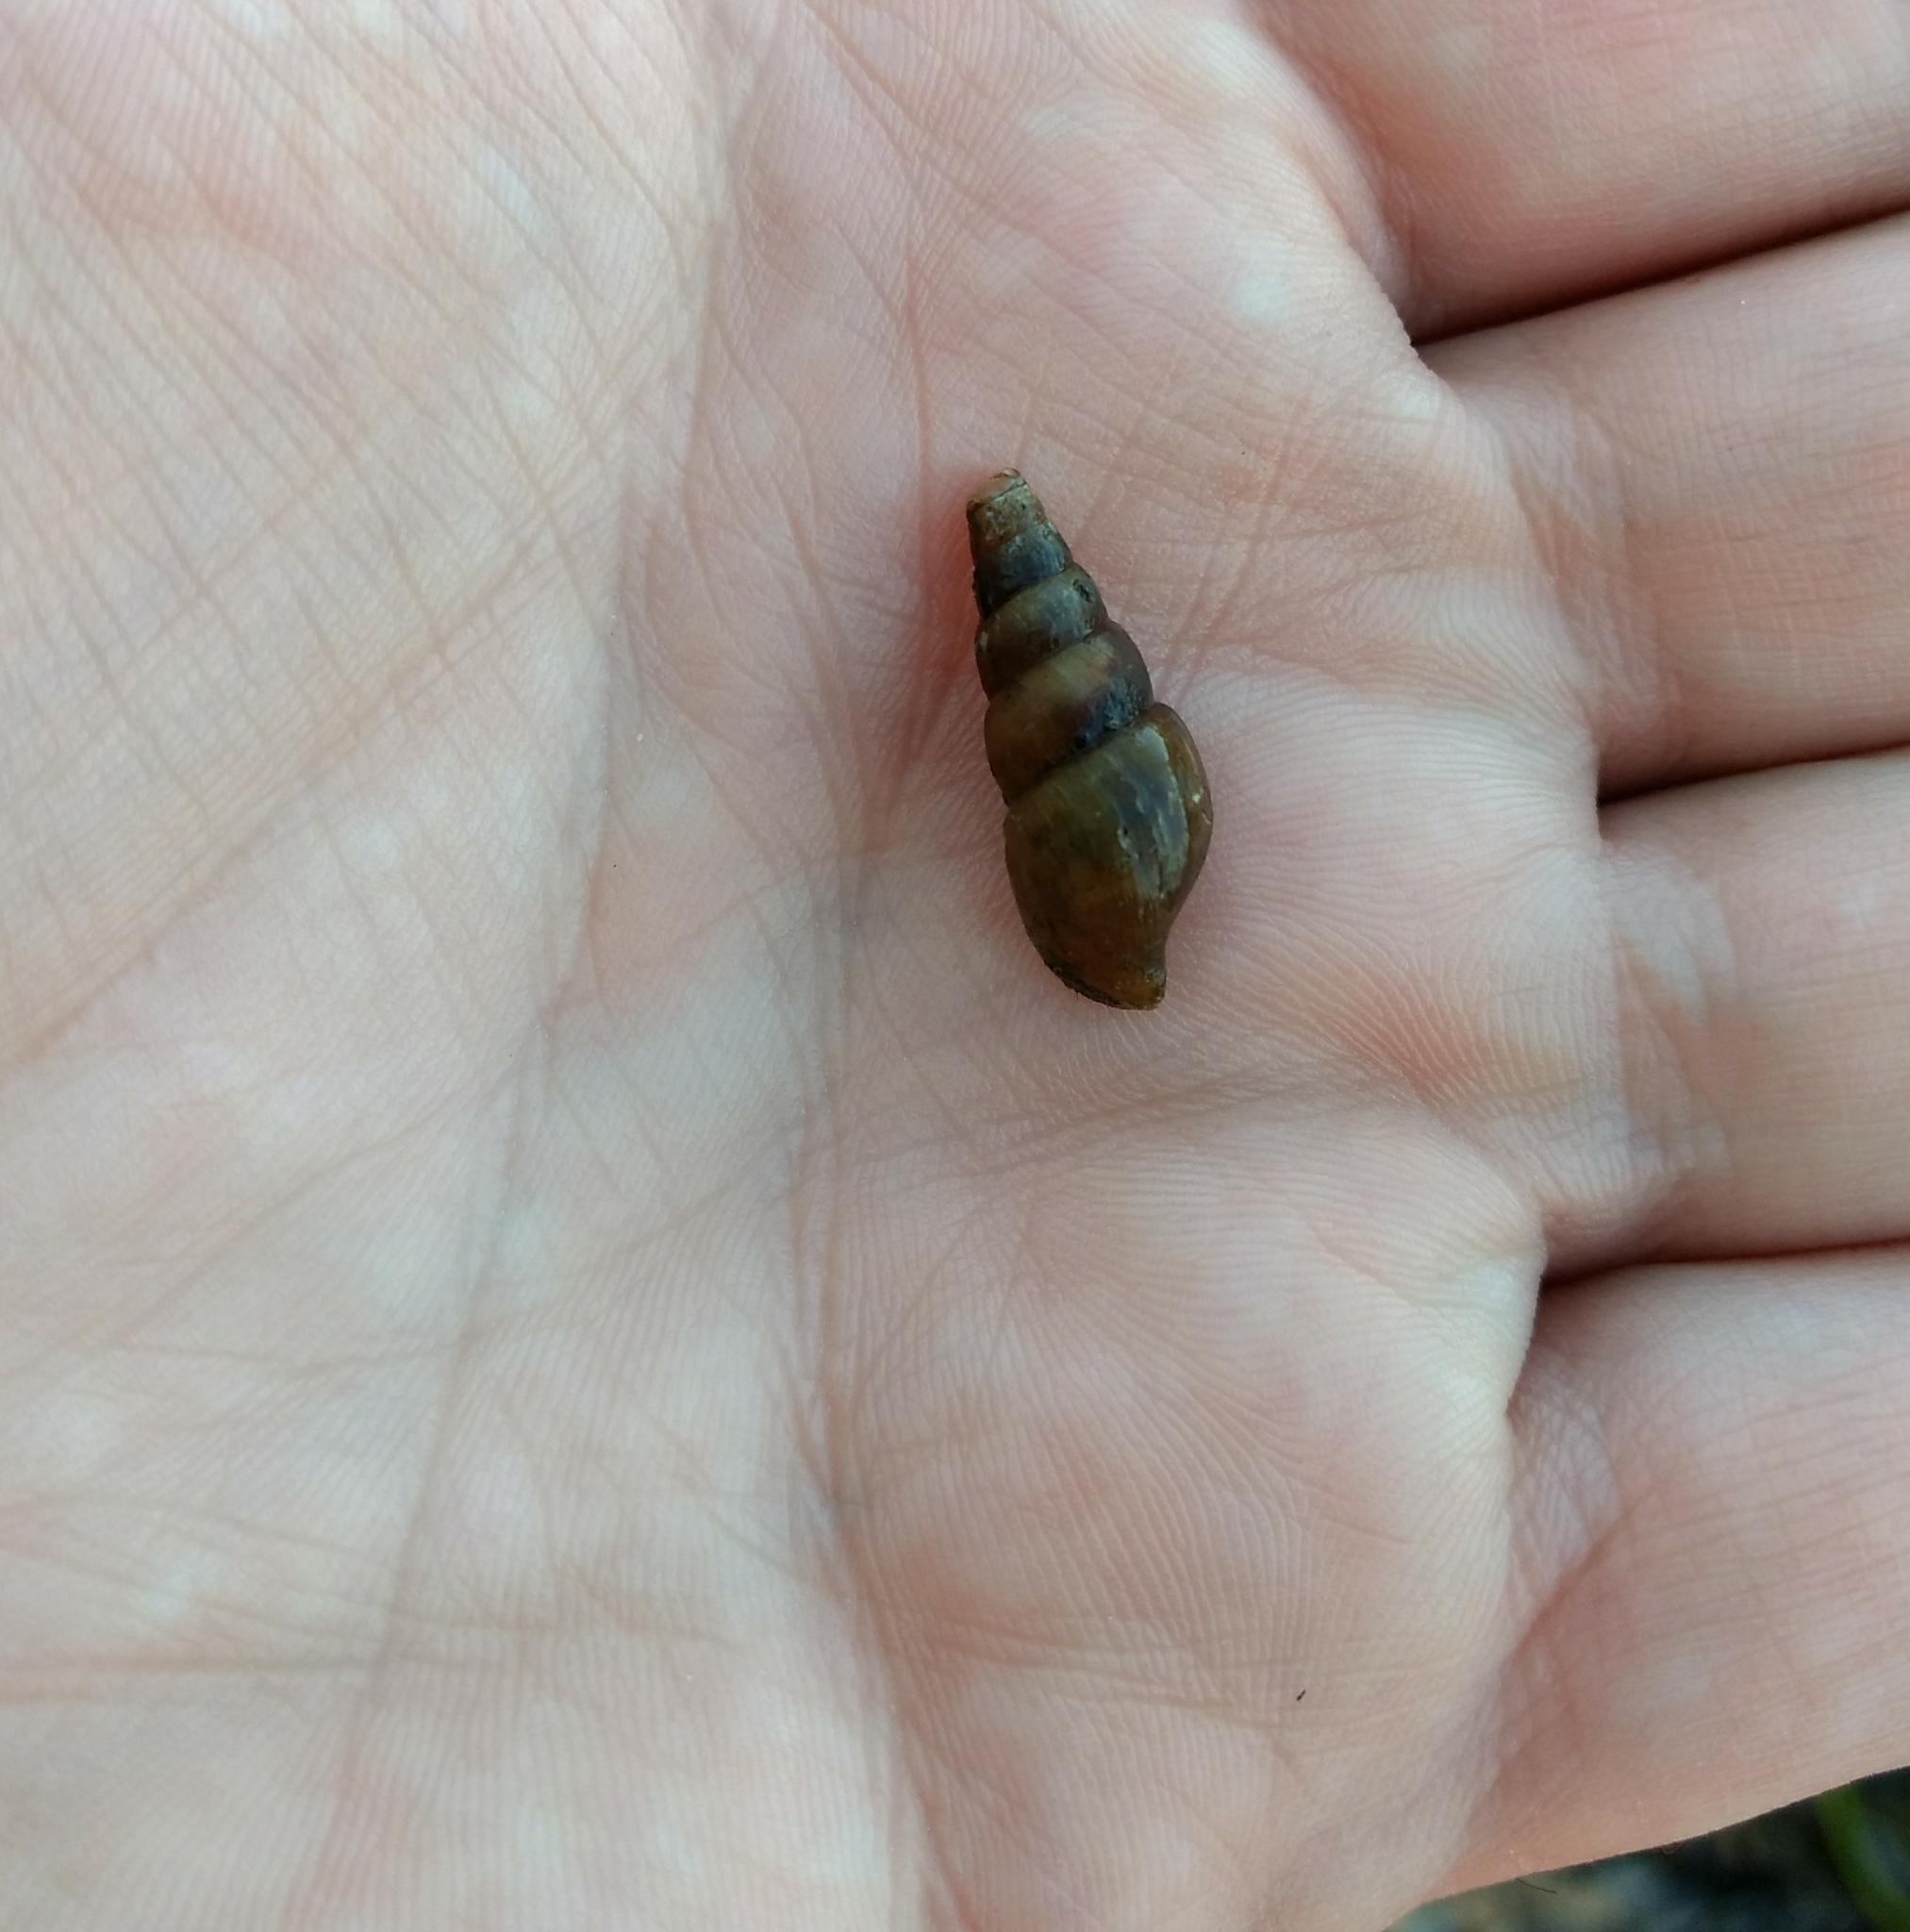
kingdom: Animalia
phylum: Mollusca
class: Gastropoda
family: Pleuroceridae
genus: Elimia
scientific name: Elimia virginica
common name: Piedmont elimia
